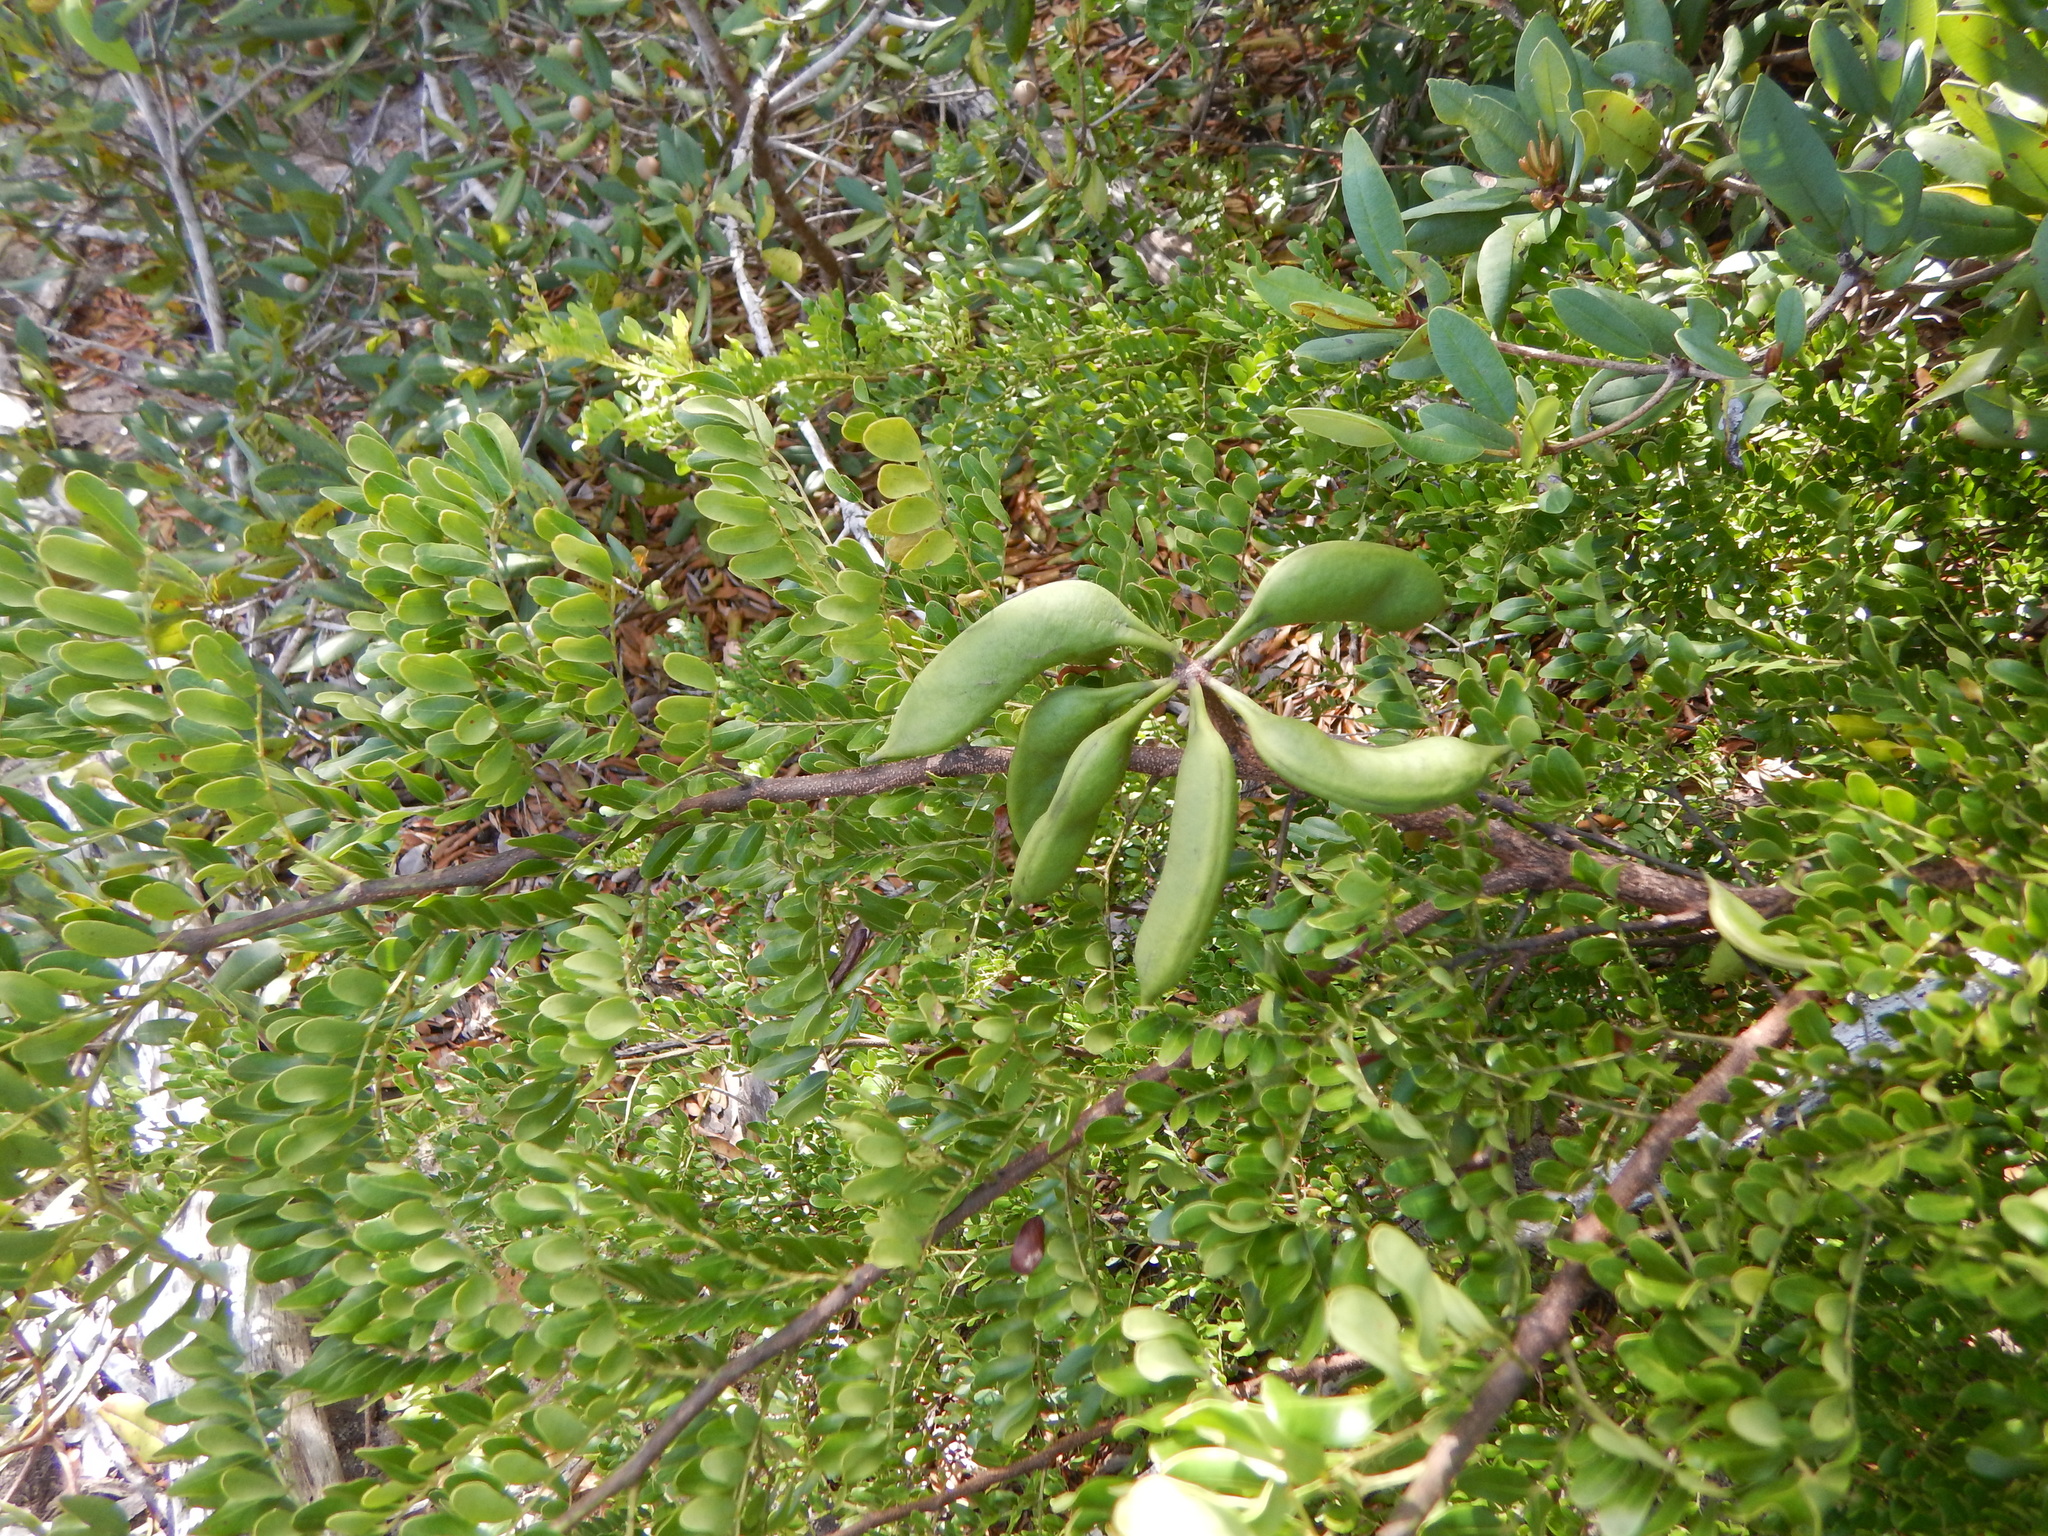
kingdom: Plantae
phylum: Tracheophyta
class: Magnoliopsida
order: Fabales
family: Fabaceae
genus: Vachellia
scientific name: Vachellia choriophylla
